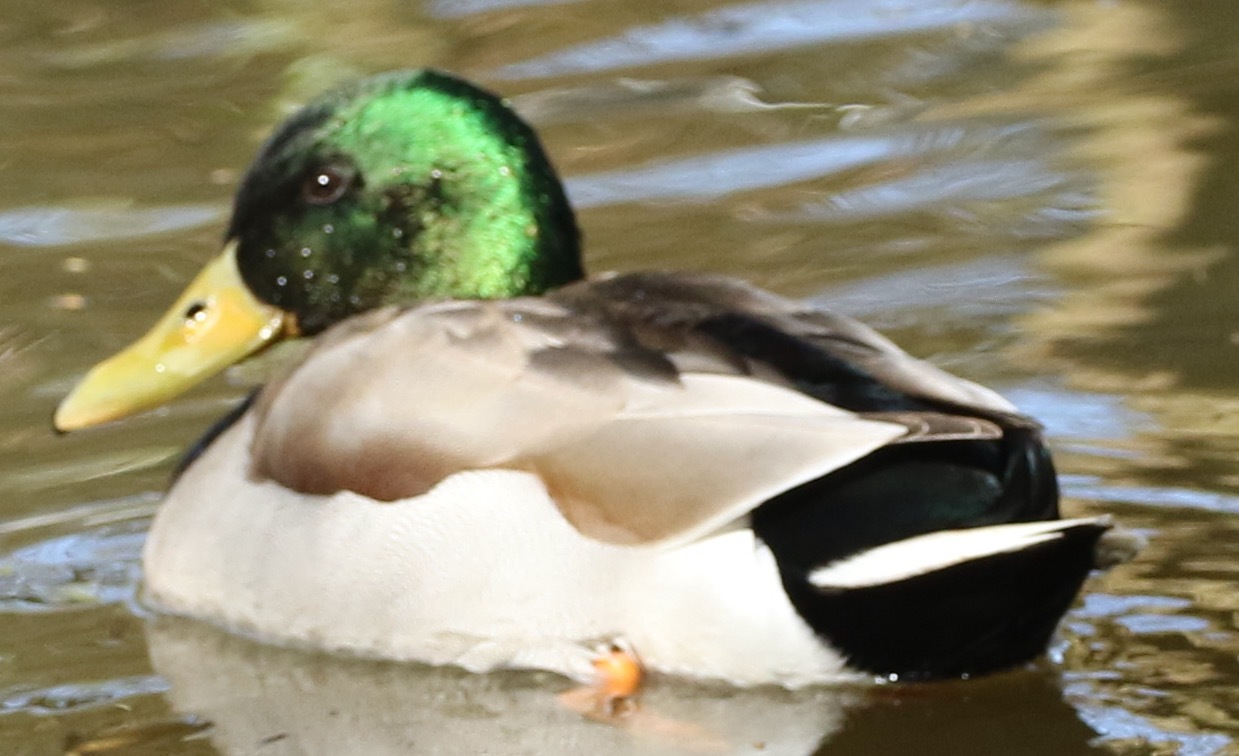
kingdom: Animalia
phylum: Chordata
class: Aves
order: Anseriformes
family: Anatidae
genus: Anas
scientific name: Anas platyrhynchos
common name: Mallard
